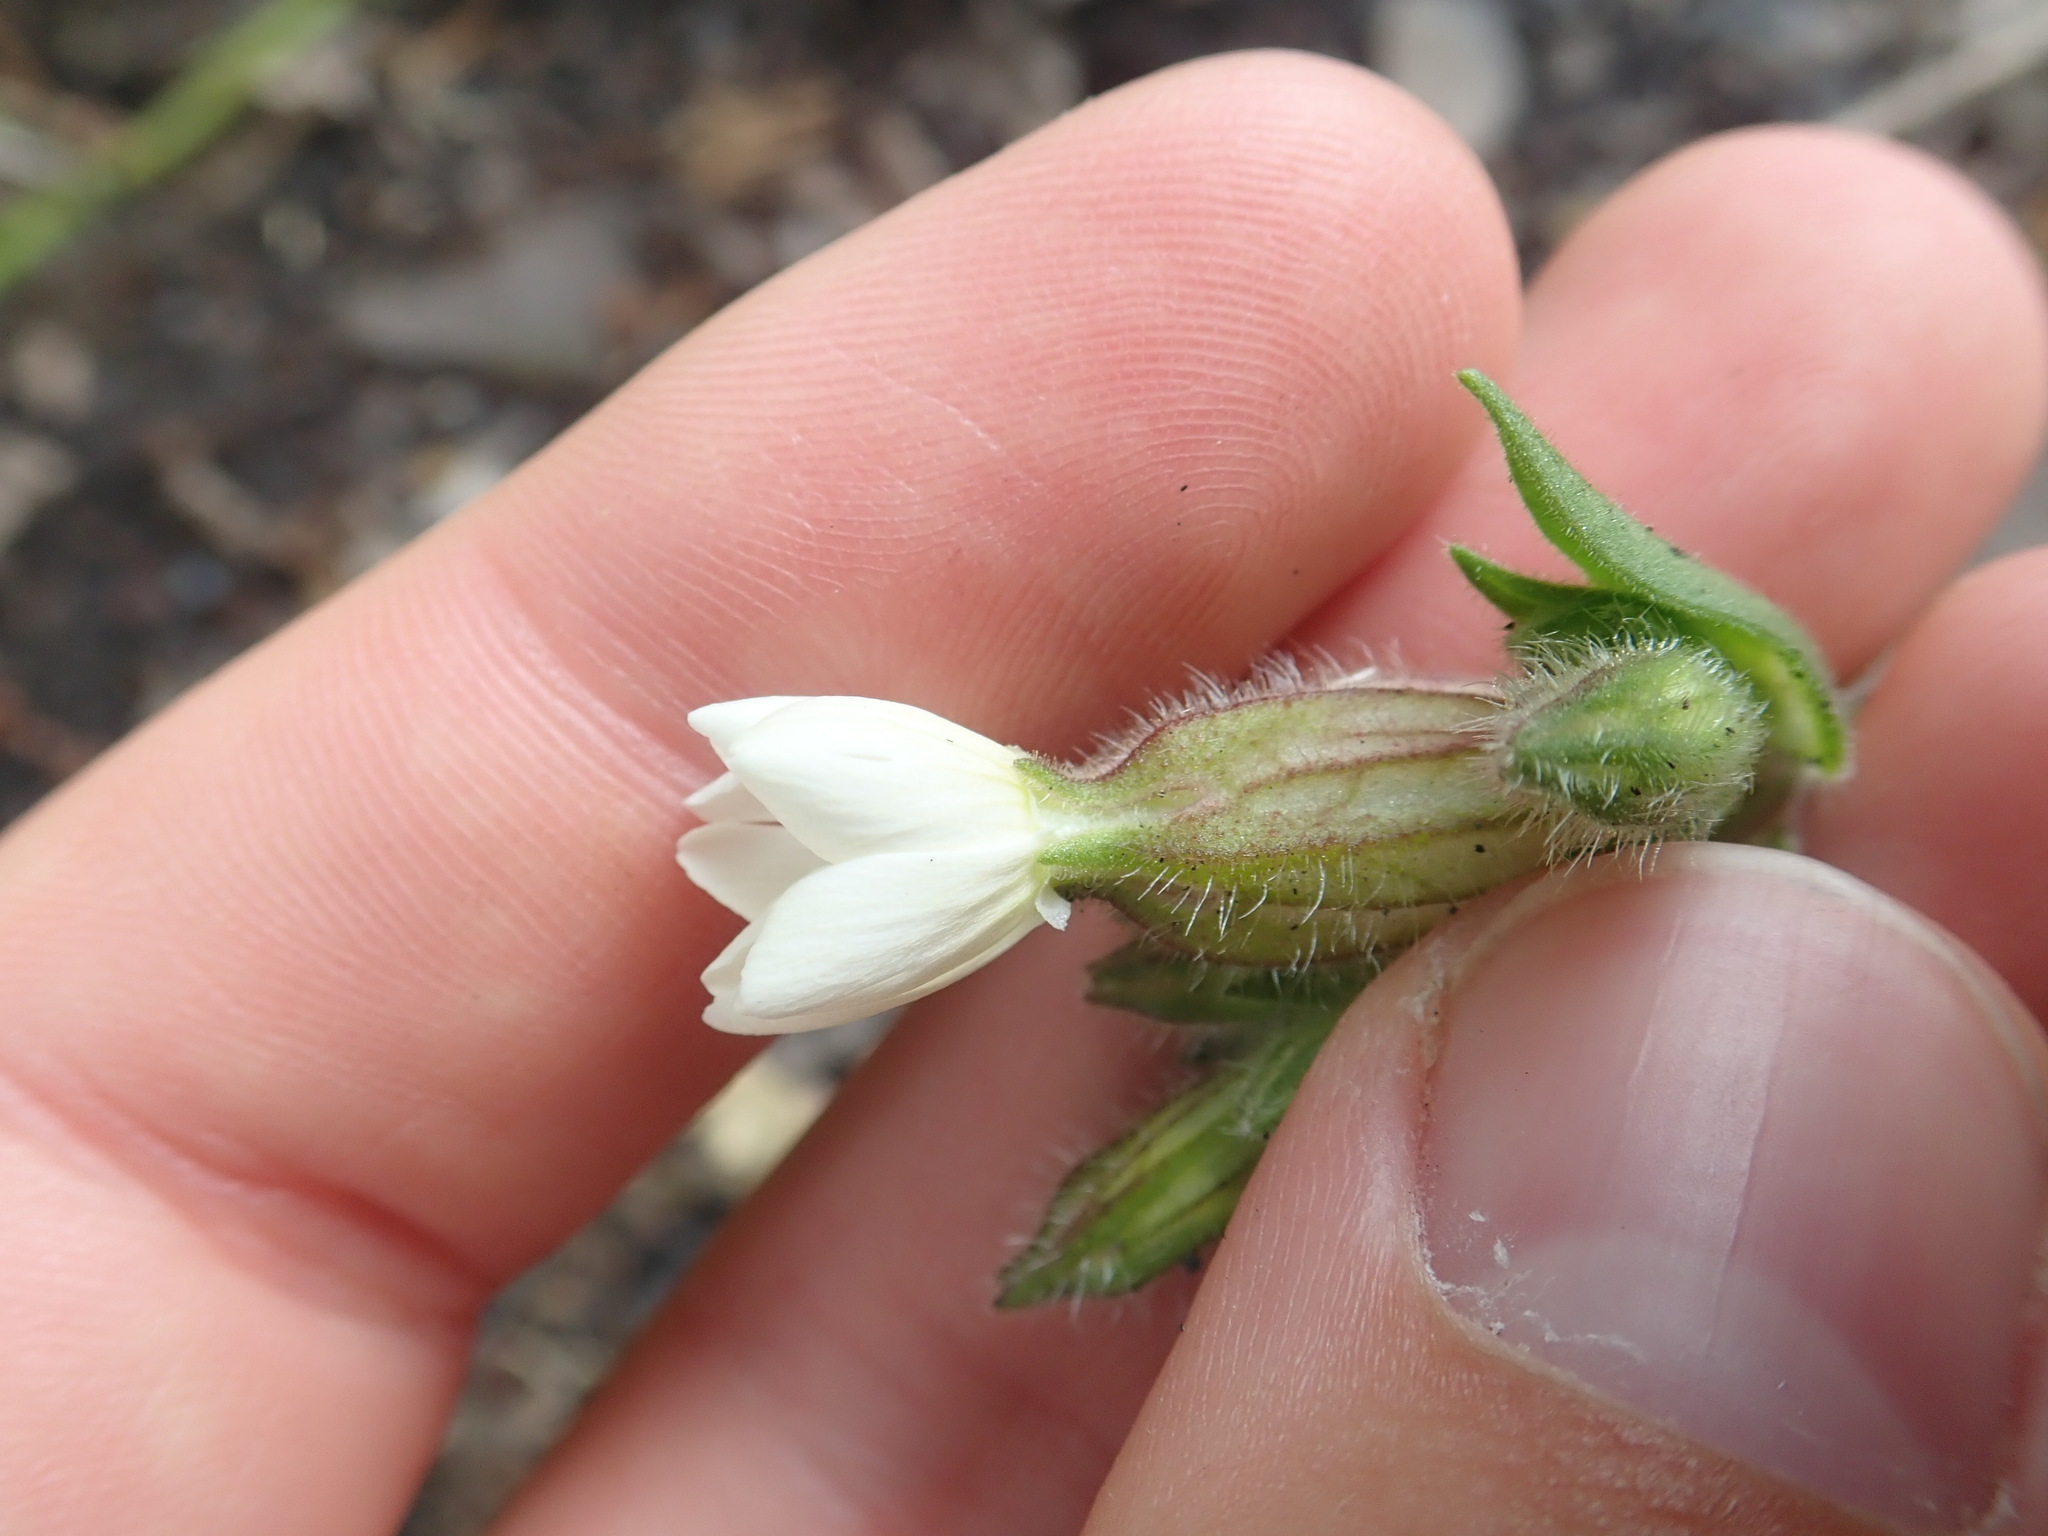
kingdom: Plantae
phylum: Tracheophyta
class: Magnoliopsida
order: Caryophyllales
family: Caryophyllaceae
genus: Silene
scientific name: Silene latifolia
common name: White campion
